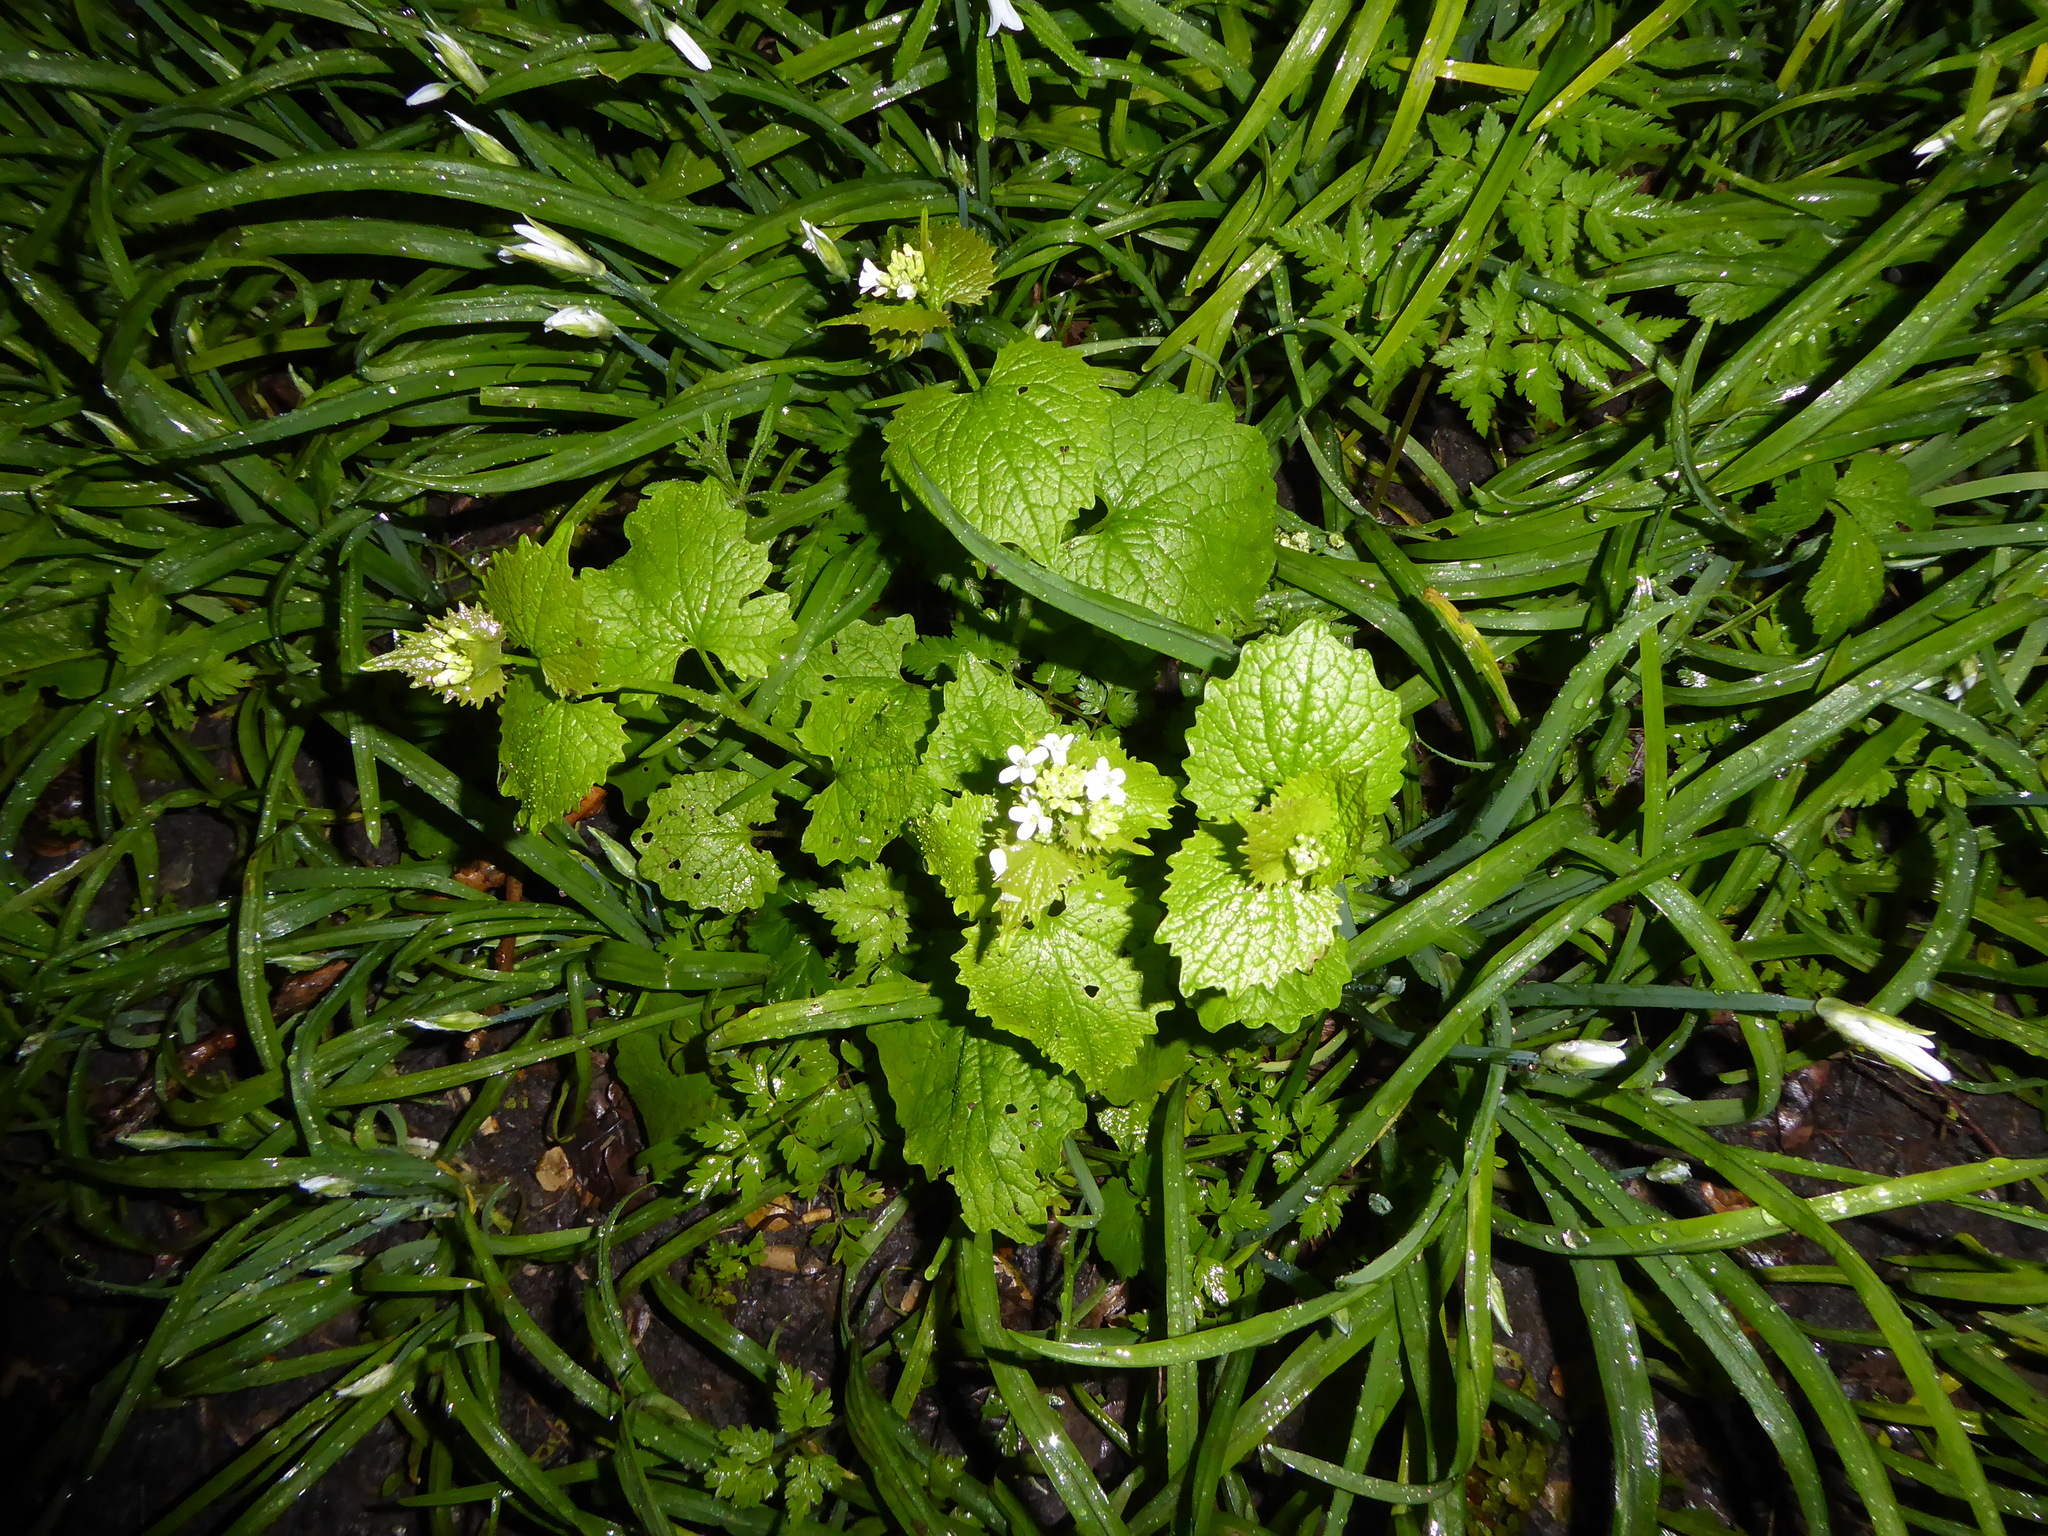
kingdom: Plantae
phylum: Tracheophyta
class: Magnoliopsida
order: Brassicales
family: Brassicaceae
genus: Alliaria
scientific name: Alliaria petiolata
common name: Garlic mustard
